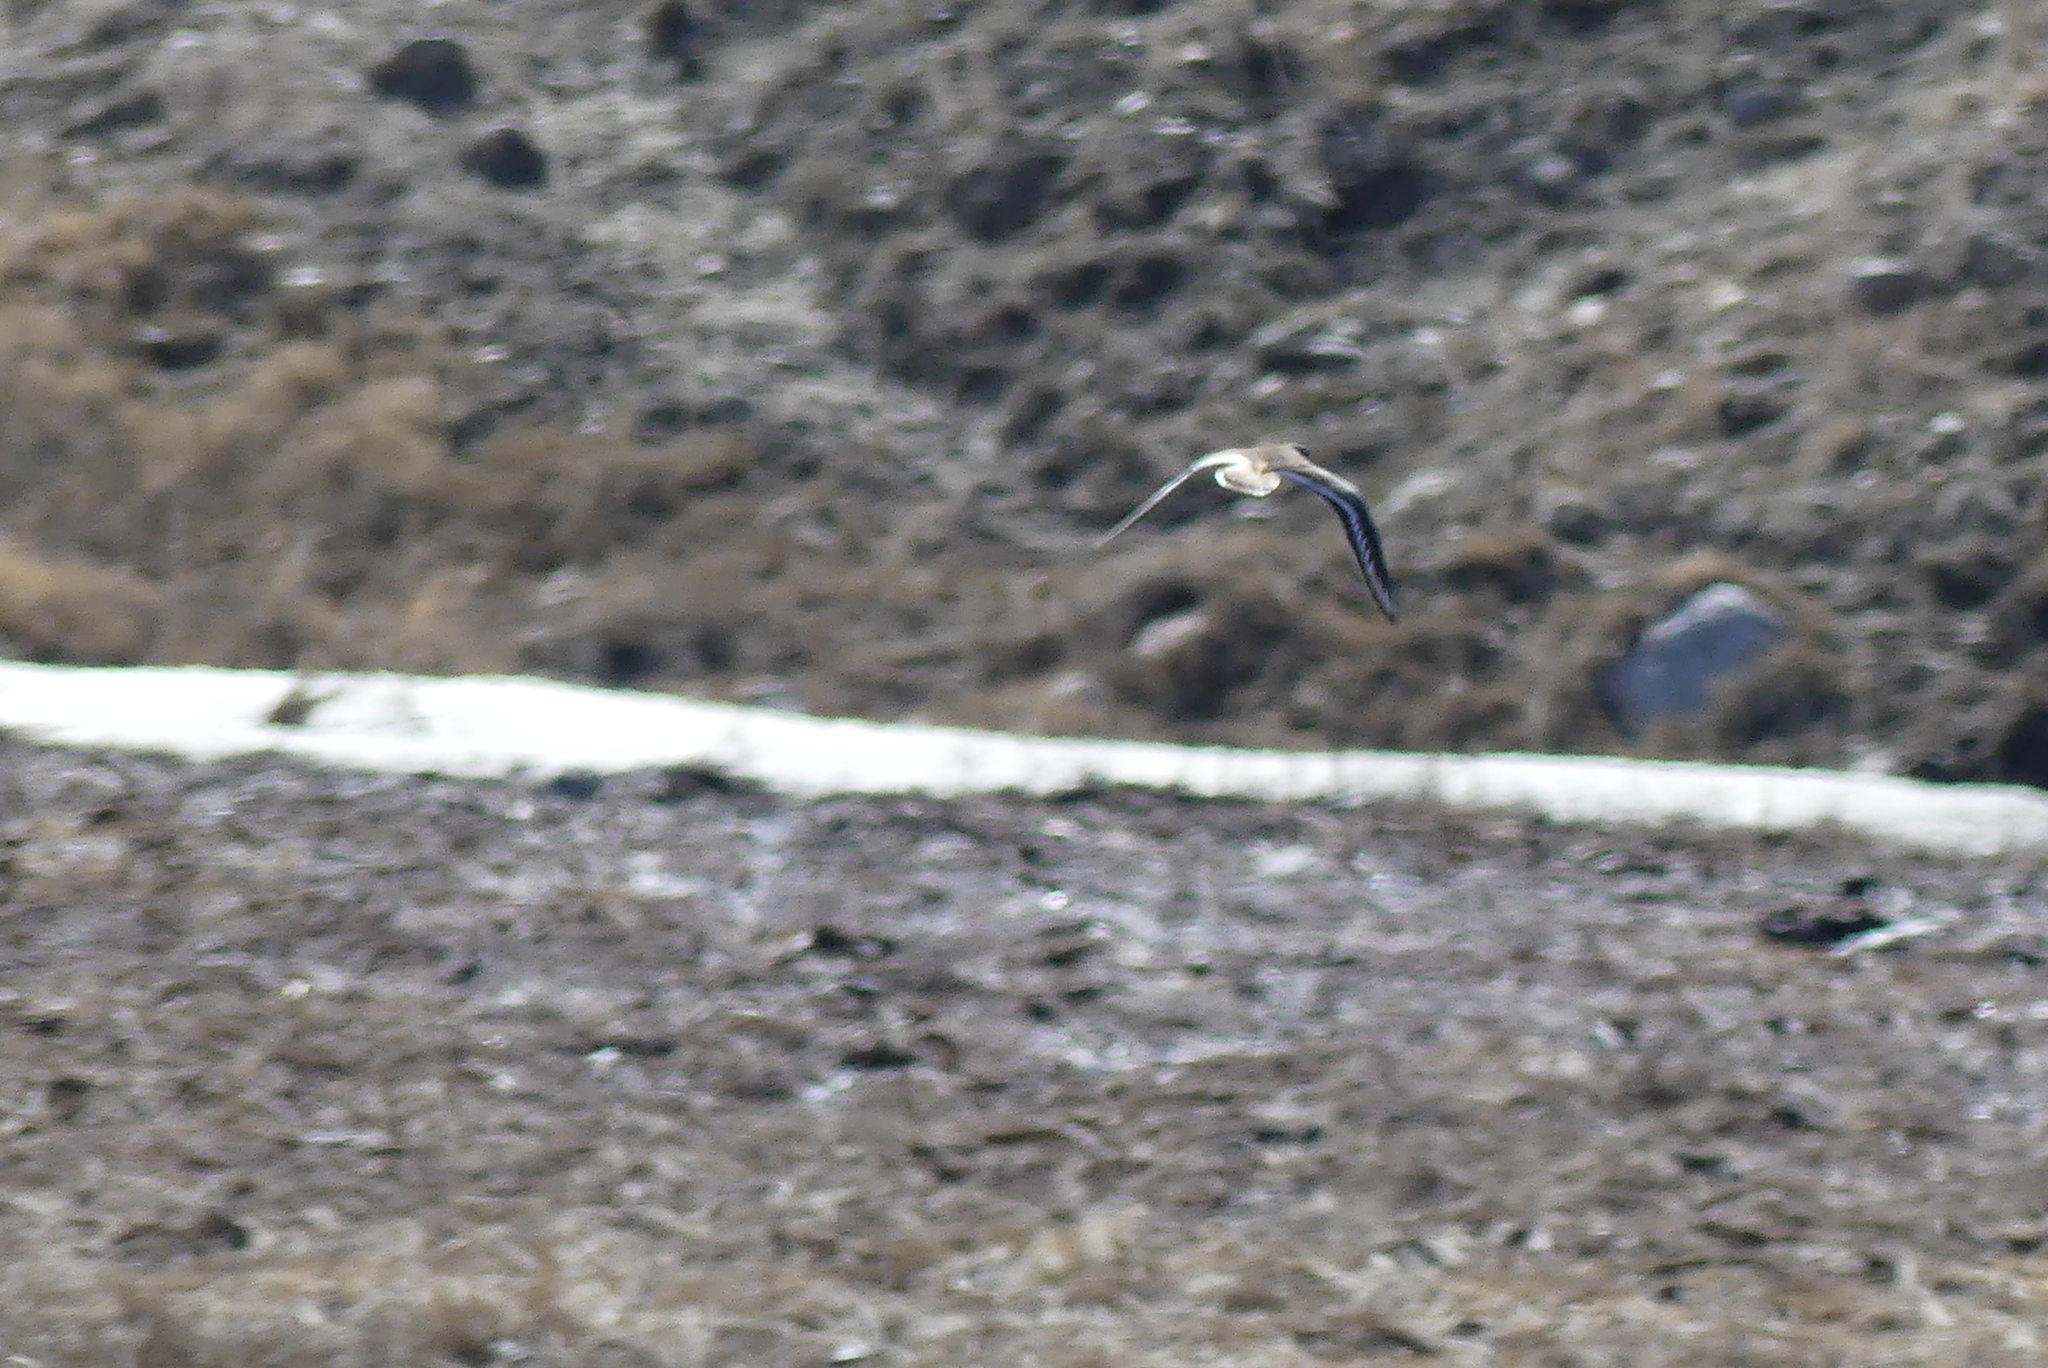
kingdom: Animalia
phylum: Chordata
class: Aves
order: Charadriiformes
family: Charadriidae
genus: Charadrius
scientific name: Charadrius vociferus
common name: Killdeer
